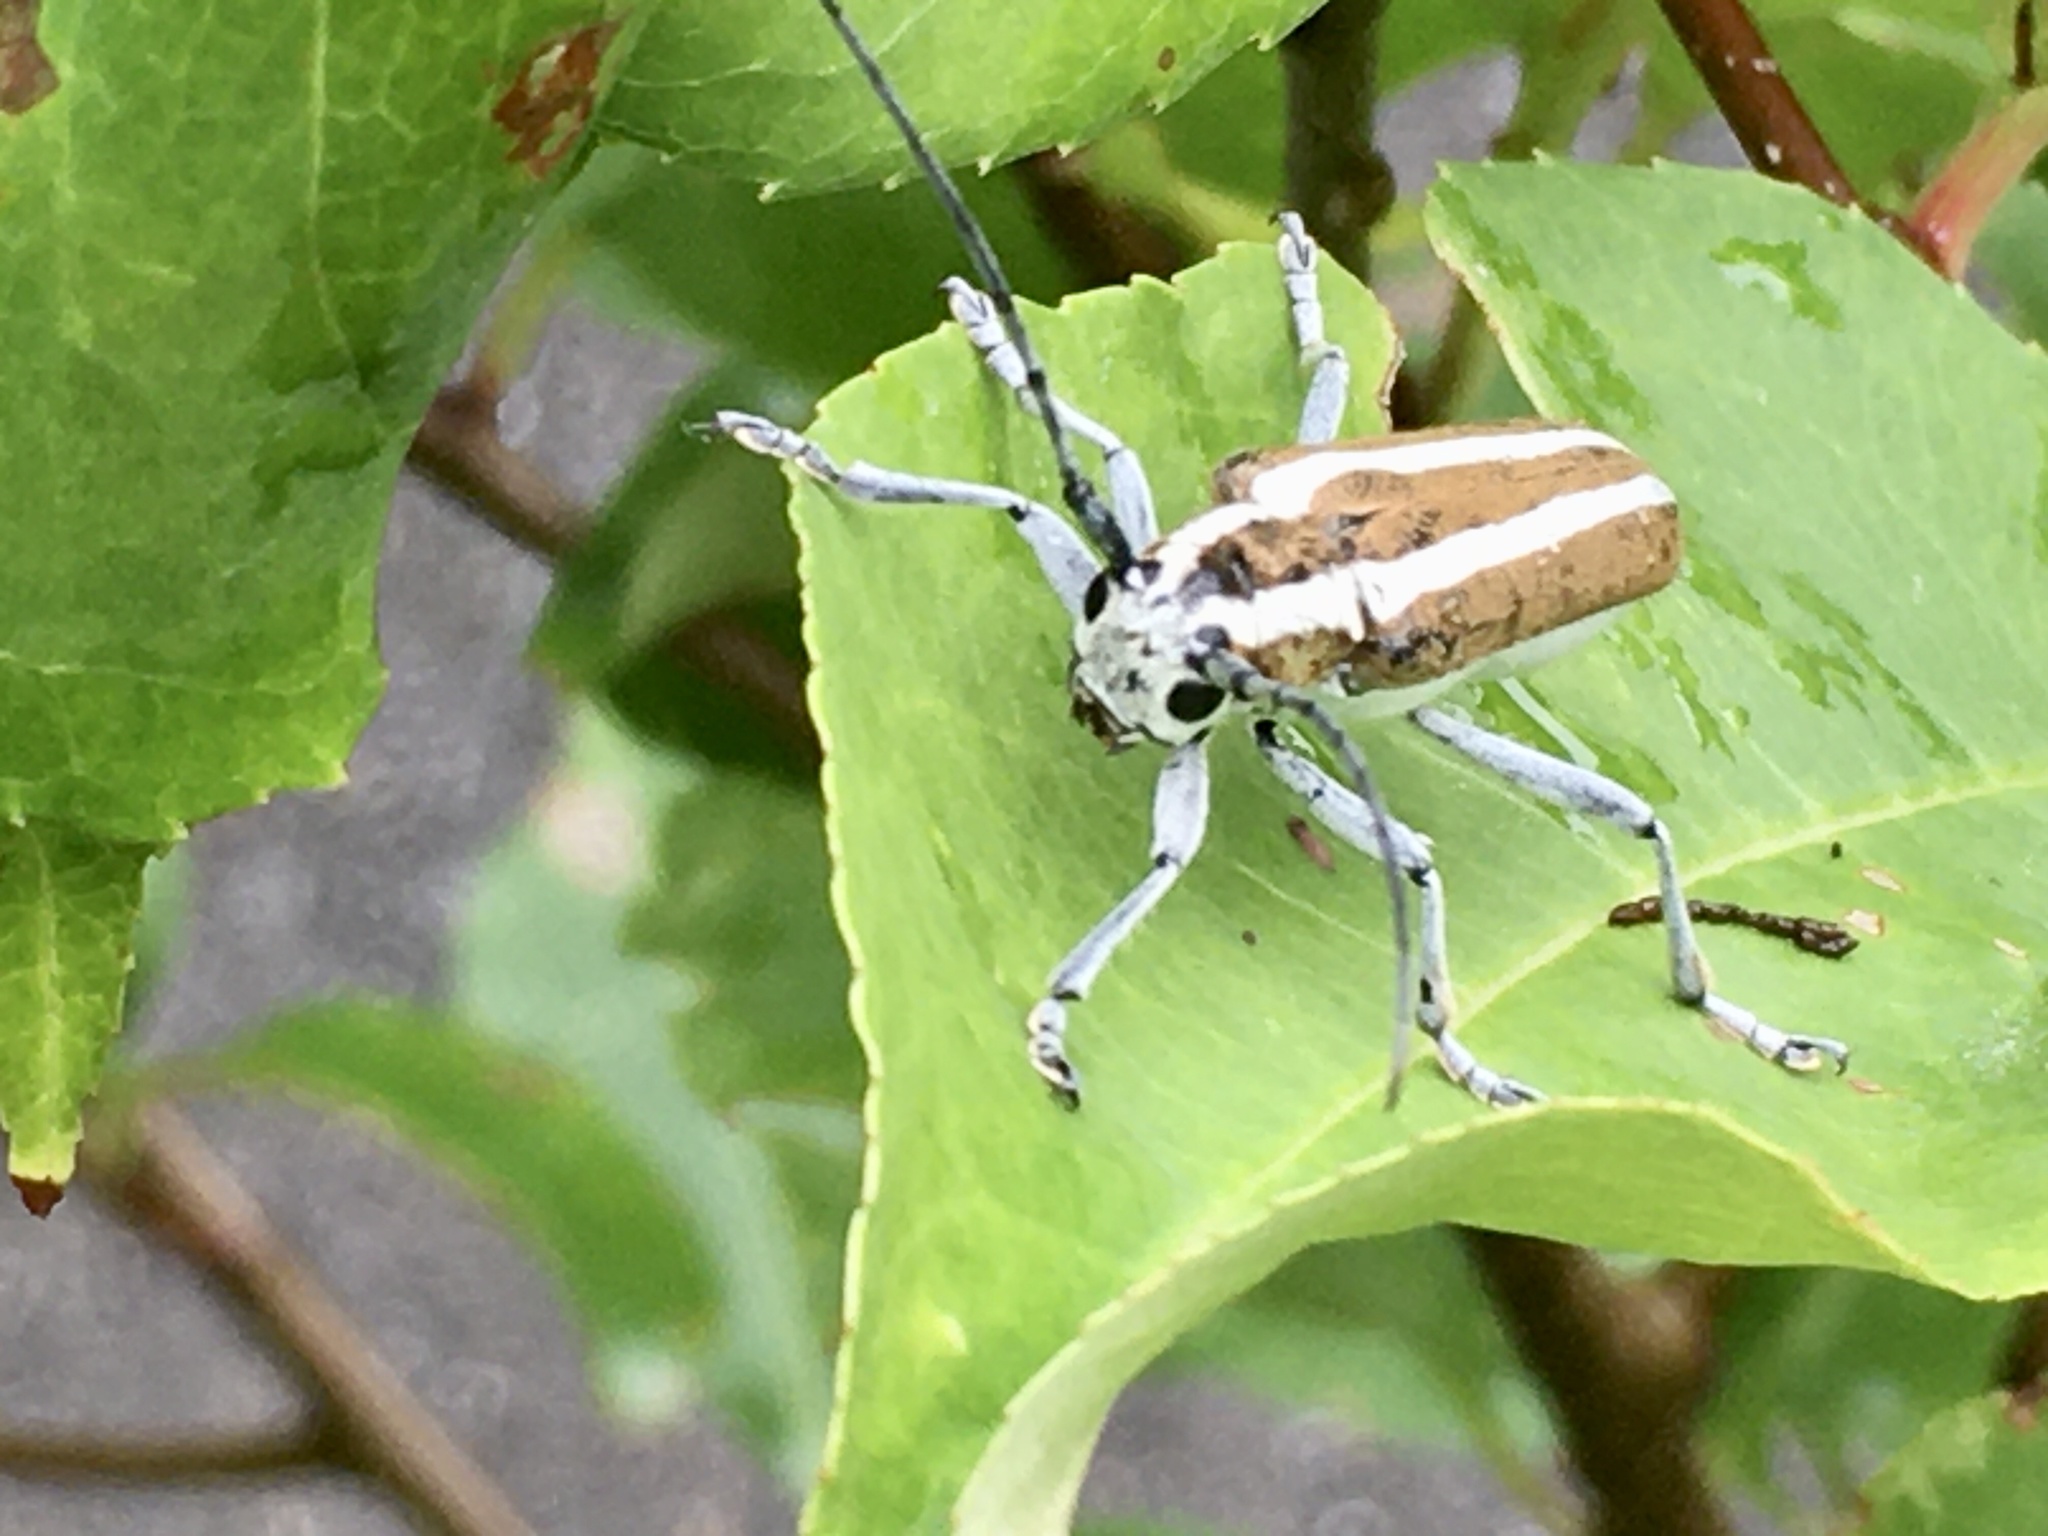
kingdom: Animalia
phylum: Arthropoda
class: Insecta
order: Coleoptera
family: Cerambycidae
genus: Saperda
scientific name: Saperda candida
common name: Round-headed borer
